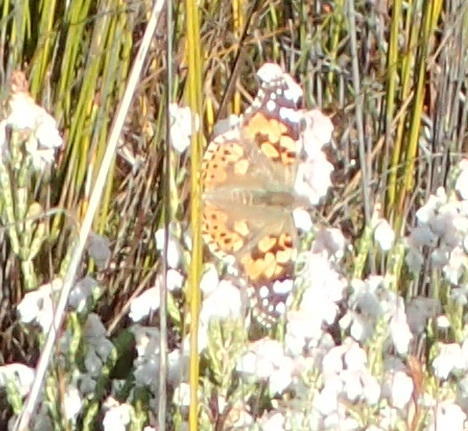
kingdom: Animalia
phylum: Arthropoda
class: Insecta
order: Lepidoptera
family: Nymphalidae
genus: Vanessa
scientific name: Vanessa cardui
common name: Painted lady
